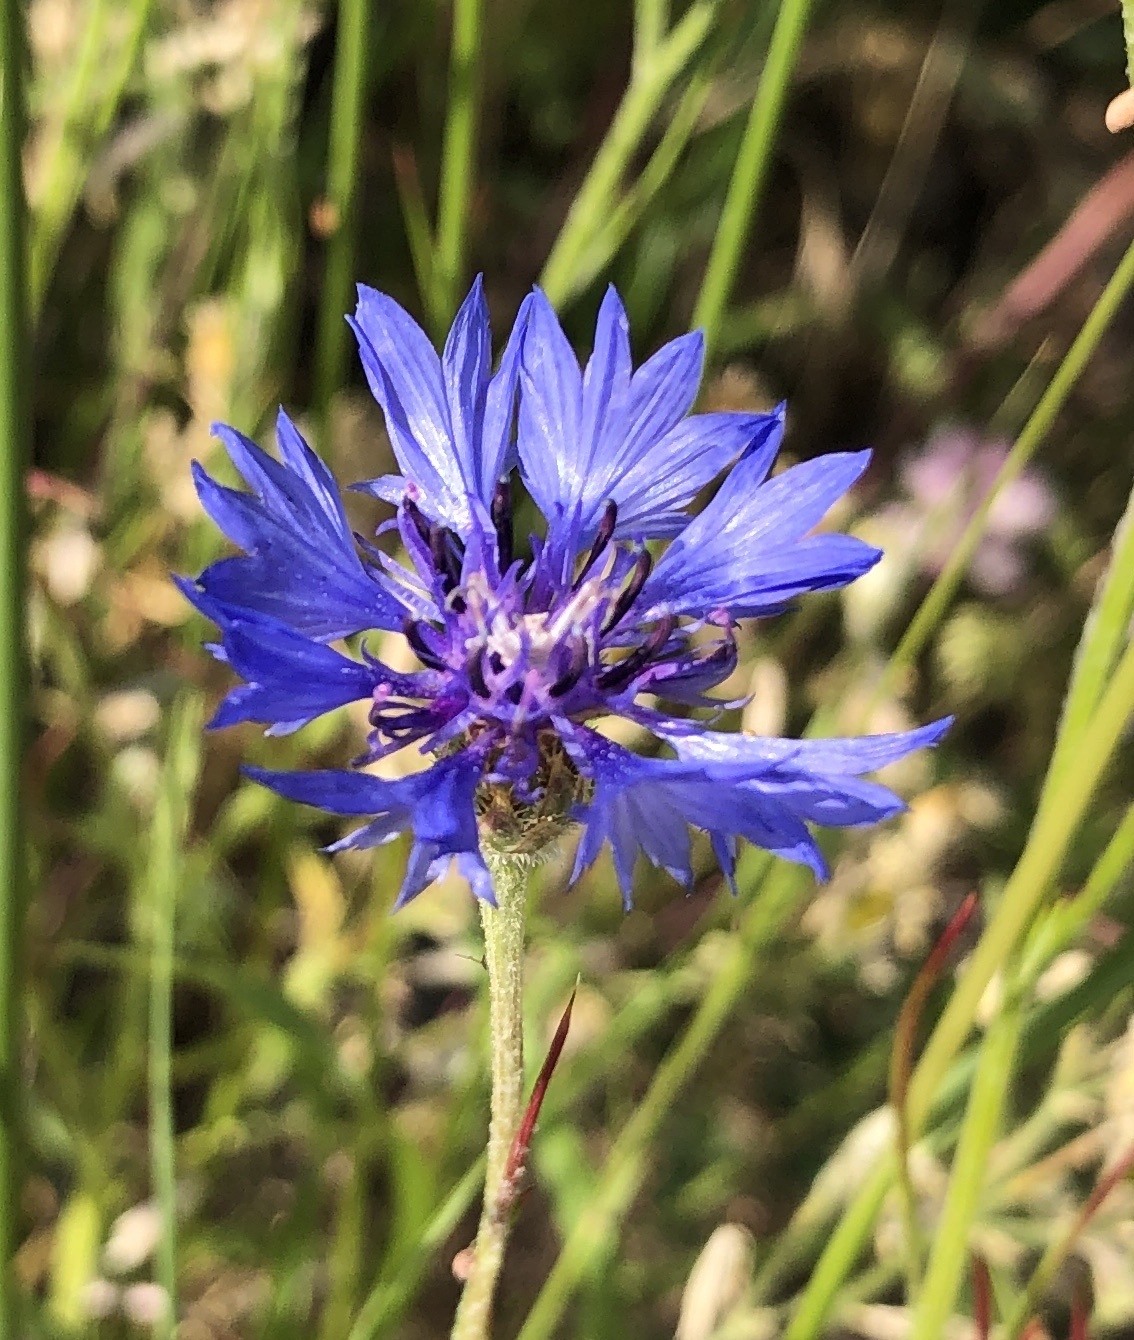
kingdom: Plantae
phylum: Tracheophyta
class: Magnoliopsida
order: Asterales
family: Asteraceae
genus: Centaurea
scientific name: Centaurea cyanus
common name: Cornflower
